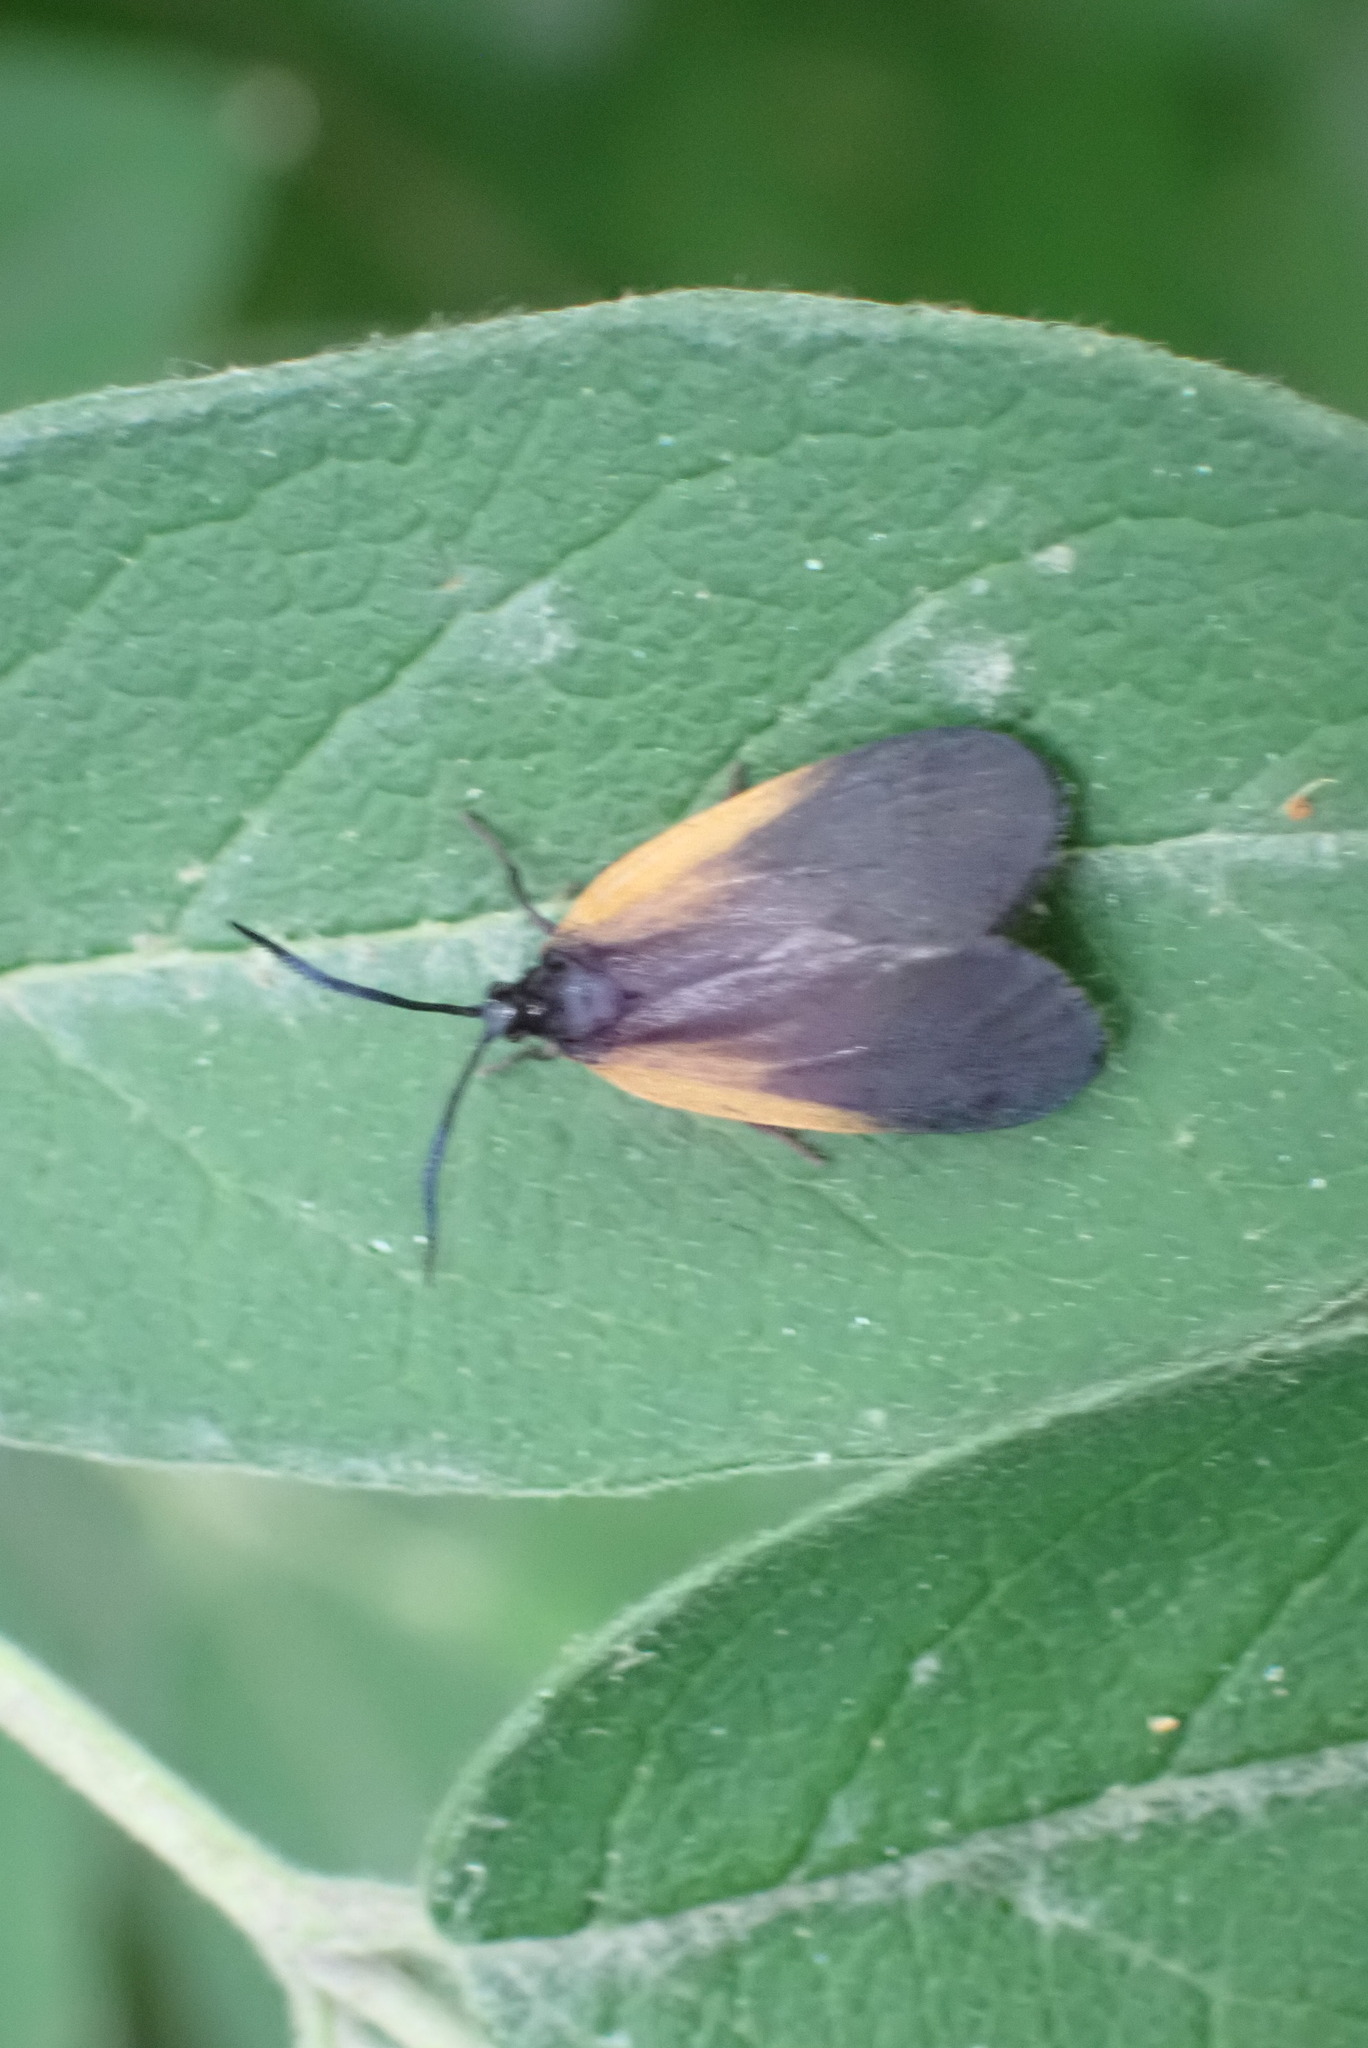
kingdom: Animalia
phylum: Arthropoda
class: Insecta
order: Lepidoptera
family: Zygaenidae
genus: Malthaca
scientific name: Malthaca dimidiata
